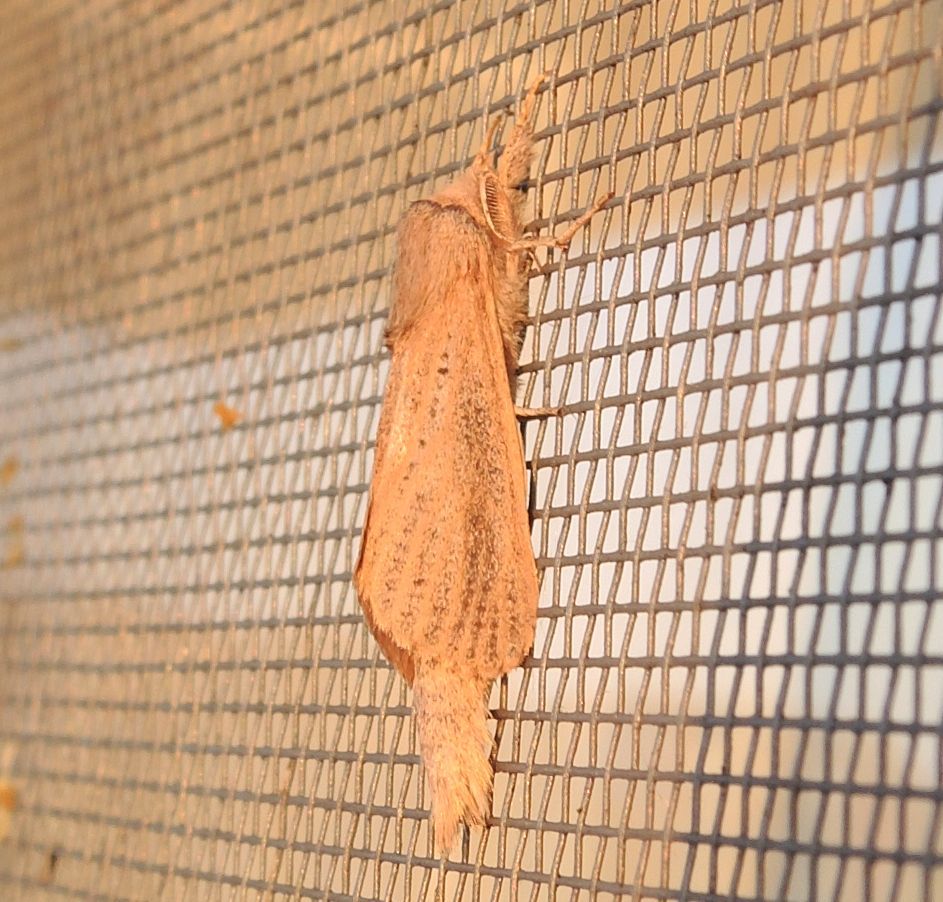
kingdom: Animalia
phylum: Arthropoda
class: Insecta
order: Lepidoptera
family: Cossidae
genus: Phragmataecia
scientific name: Phragmataecia castaneae
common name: Reed leopard
